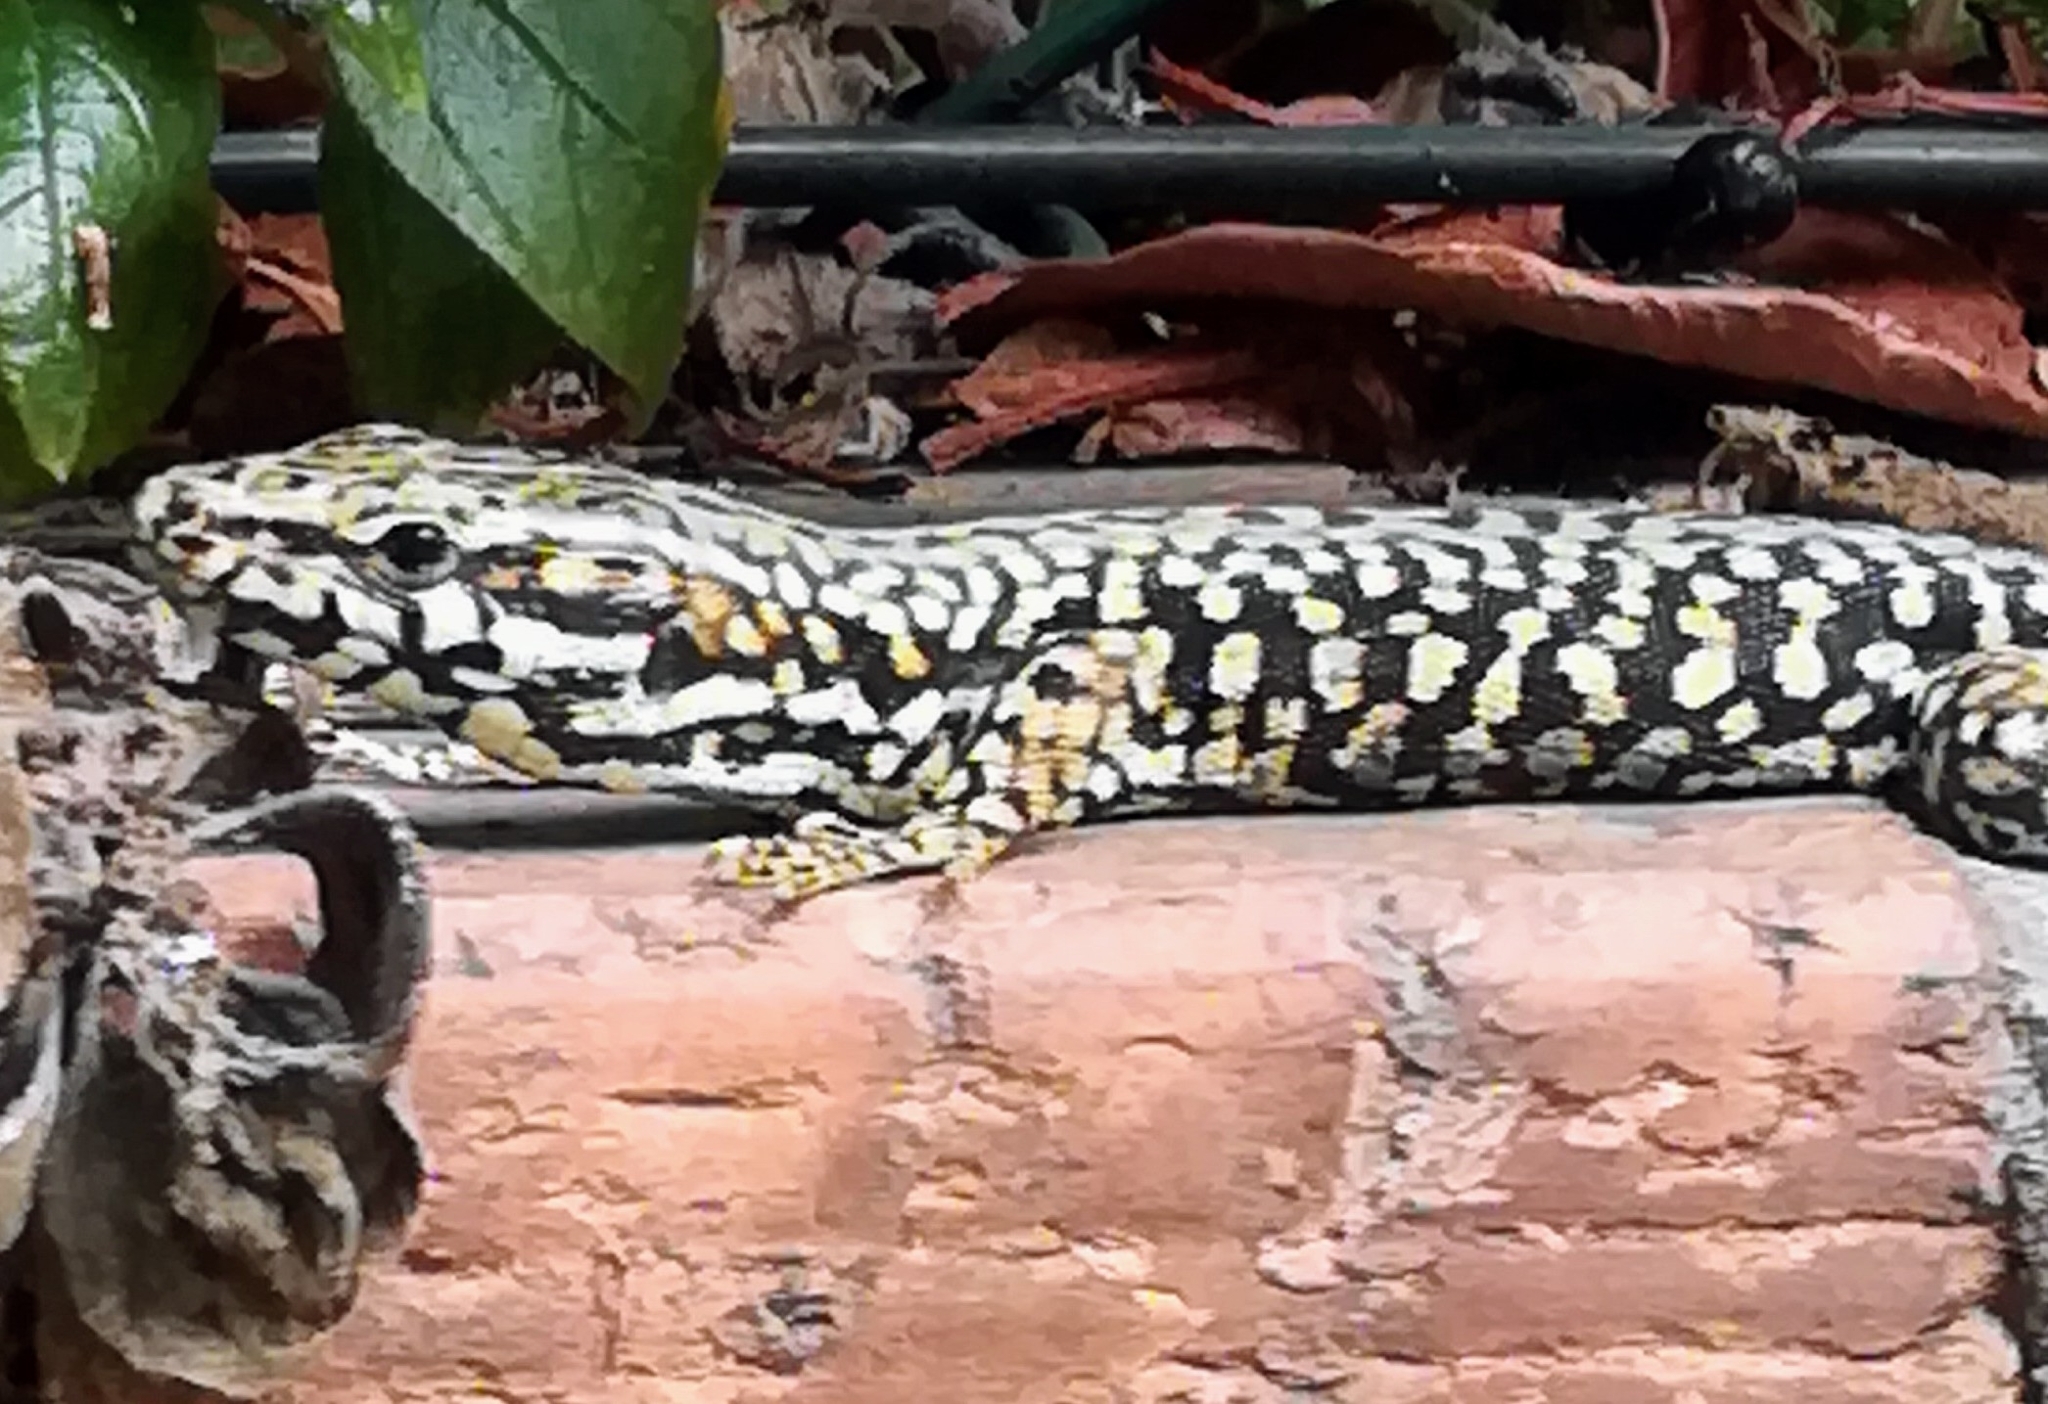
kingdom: Animalia
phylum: Chordata
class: Squamata
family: Lacertidae
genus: Podarcis
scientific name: Podarcis muralis
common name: Common wall lizard
